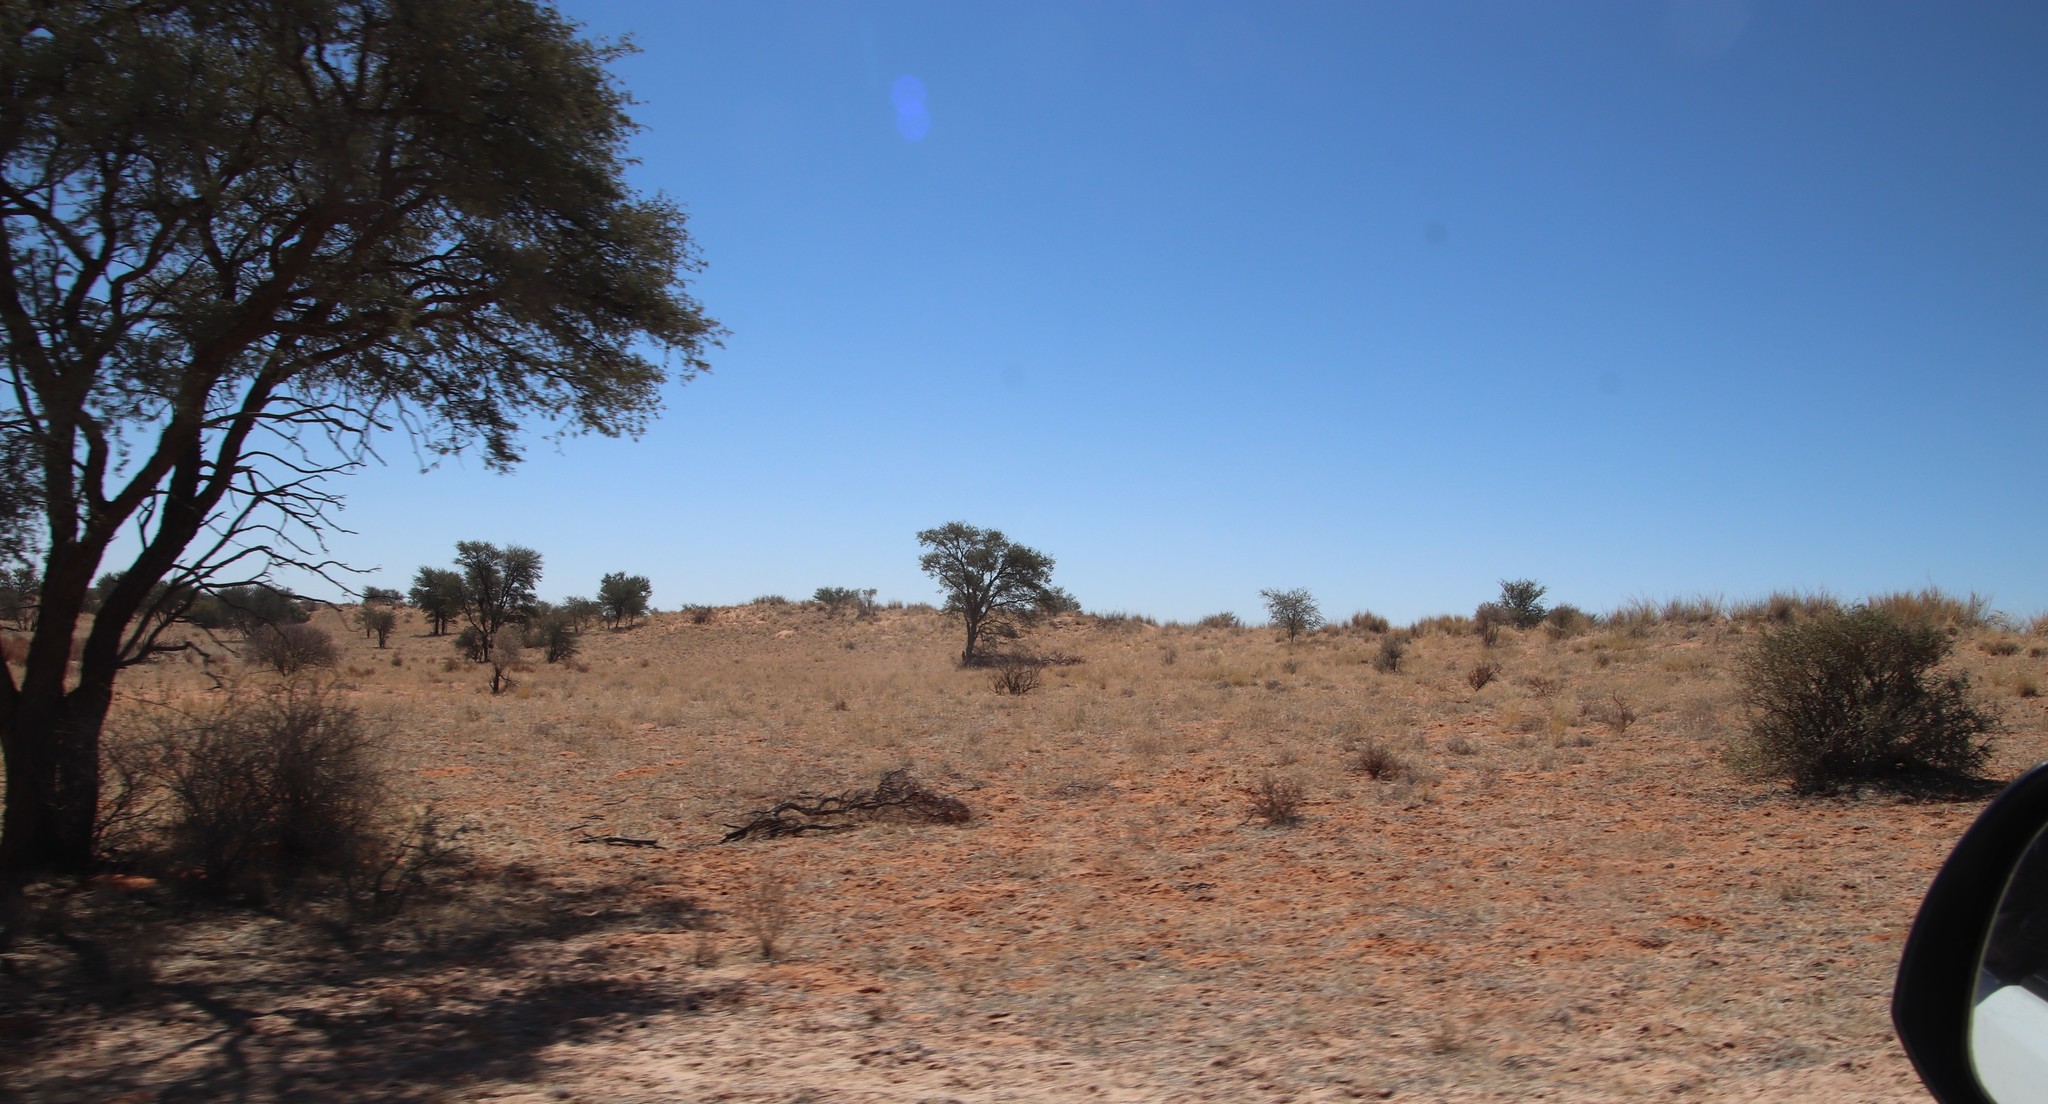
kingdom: Plantae
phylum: Tracheophyta
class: Magnoliopsida
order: Fabales
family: Fabaceae
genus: Vachellia
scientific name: Vachellia erioloba
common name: Camel thorn
